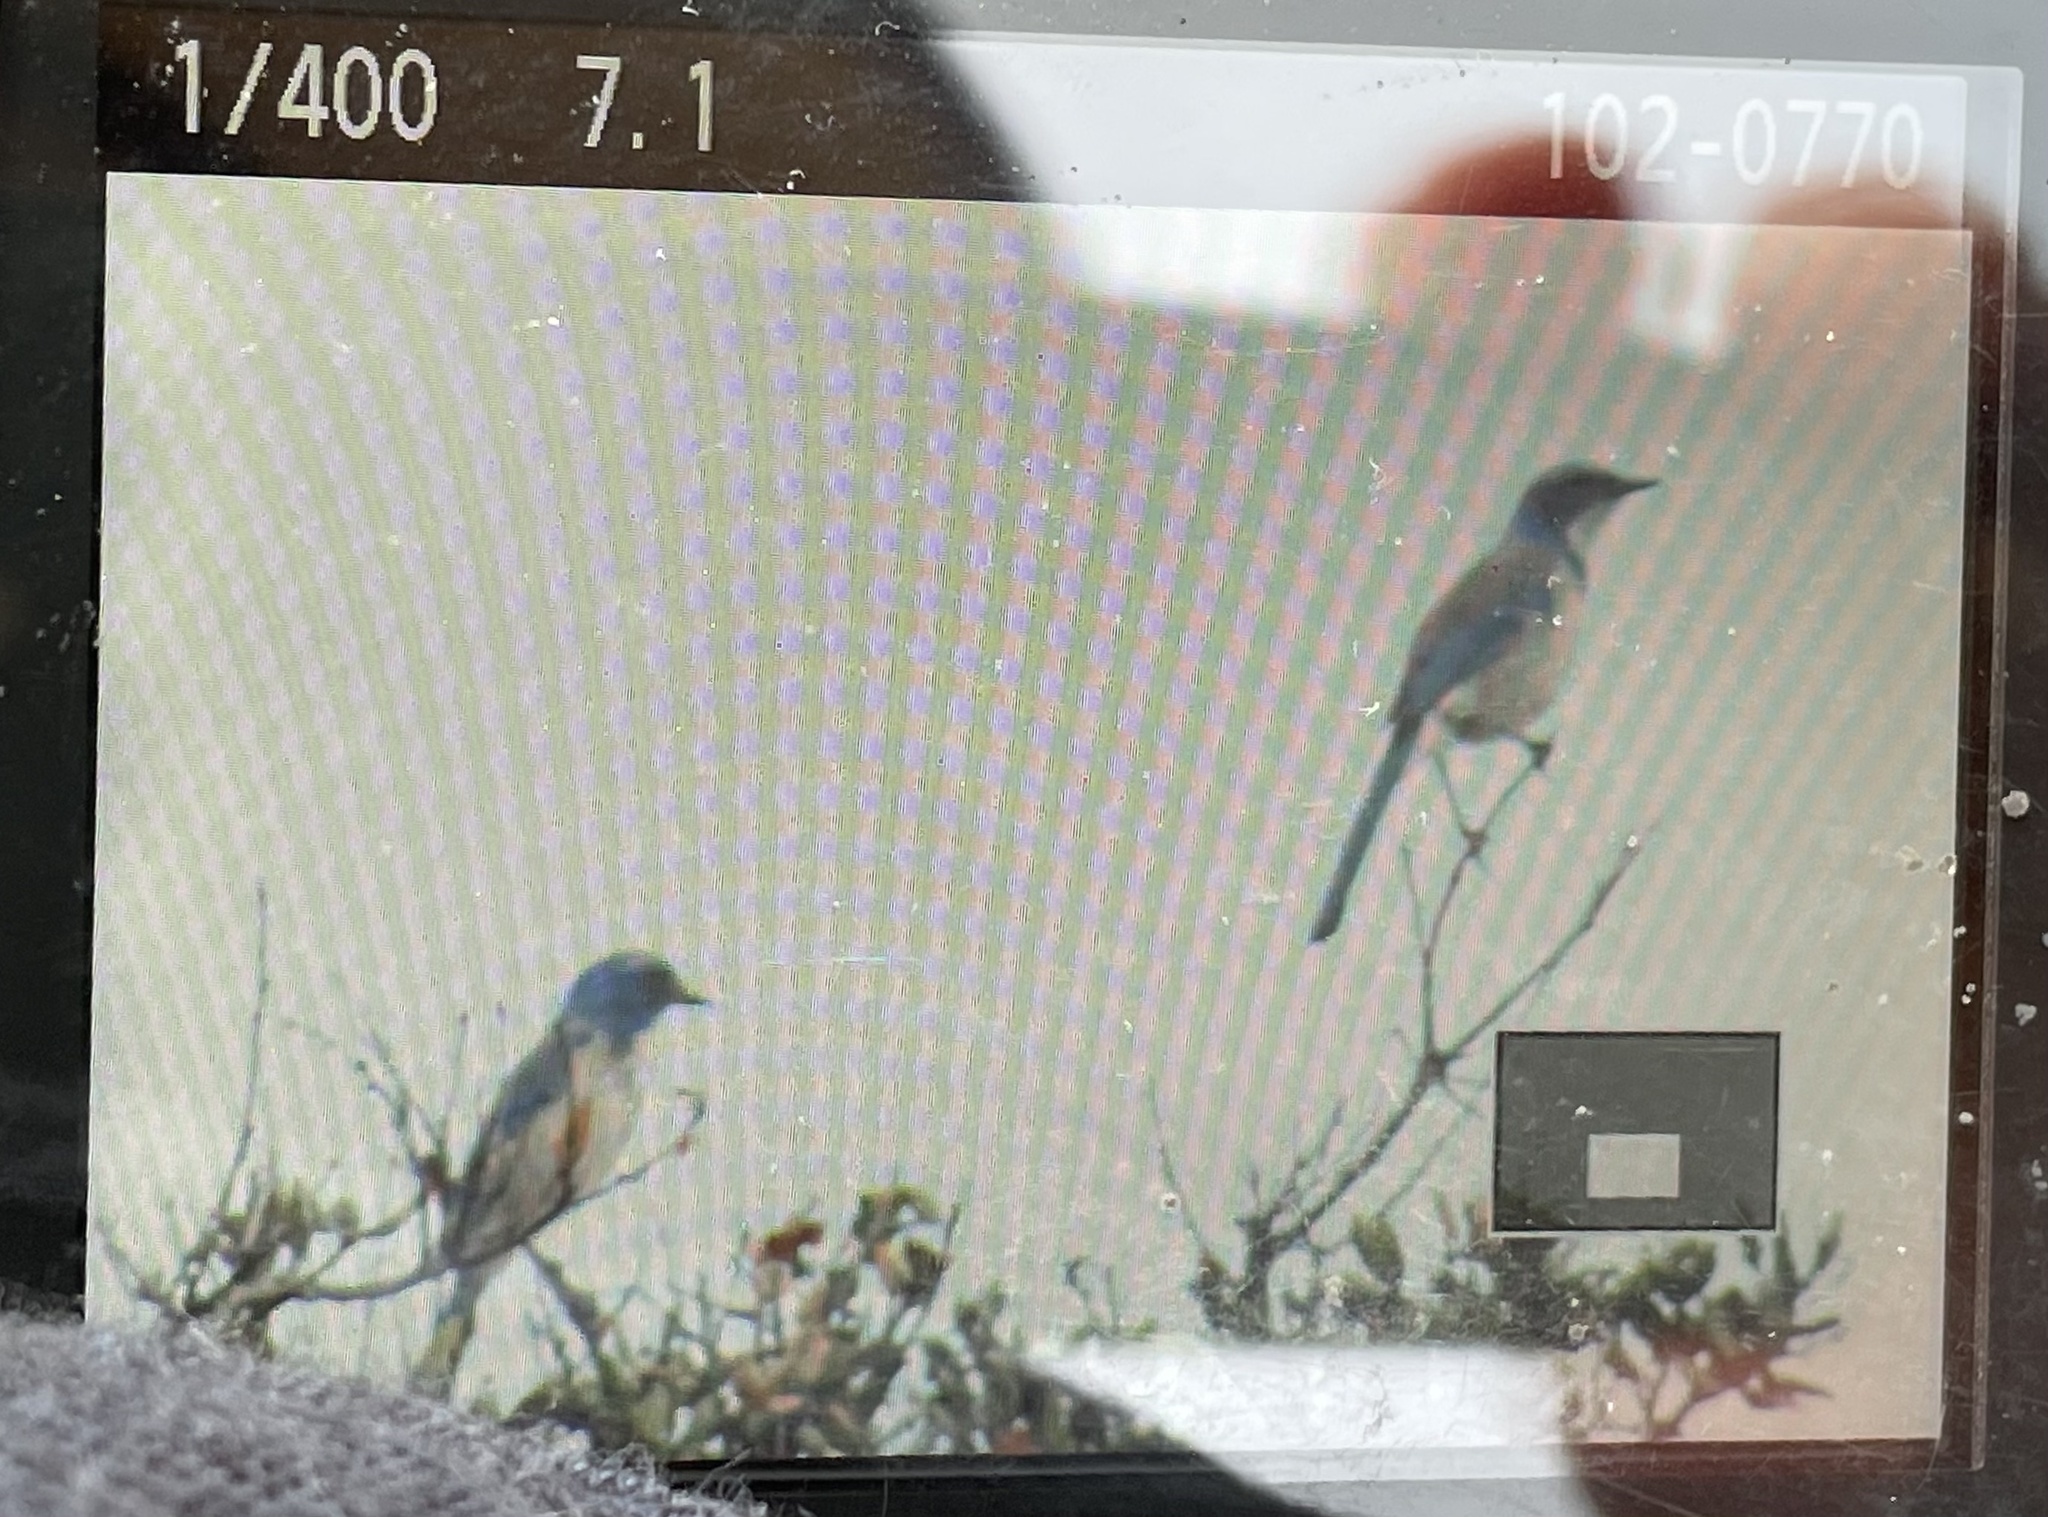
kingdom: Animalia
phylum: Chordata
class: Aves
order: Passeriformes
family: Corvidae
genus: Aphelocoma
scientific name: Aphelocoma californica
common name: California scrub-jay
